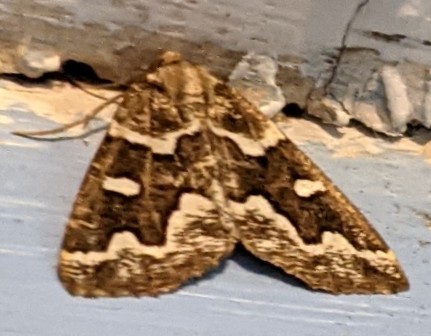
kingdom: Animalia
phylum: Arthropoda
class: Insecta
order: Lepidoptera
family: Geometridae
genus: Caripeta
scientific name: Caripeta divisata
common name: Gray spruce looper
